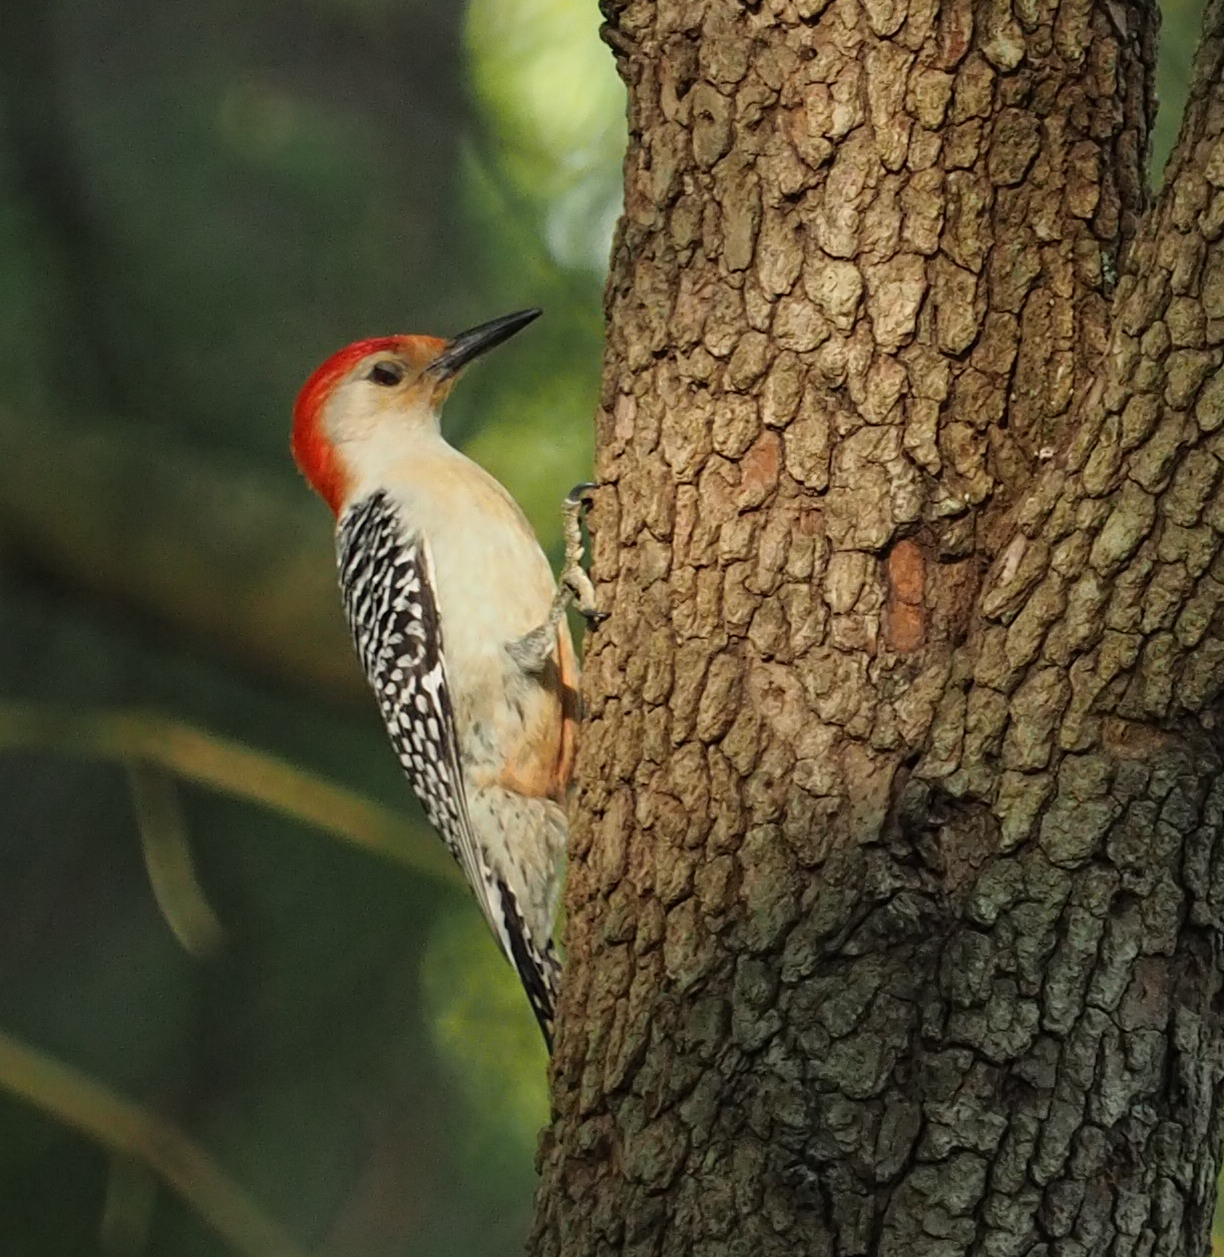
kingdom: Animalia
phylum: Chordata
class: Aves
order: Piciformes
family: Picidae
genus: Melanerpes
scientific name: Melanerpes carolinus
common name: Red-bellied woodpecker
